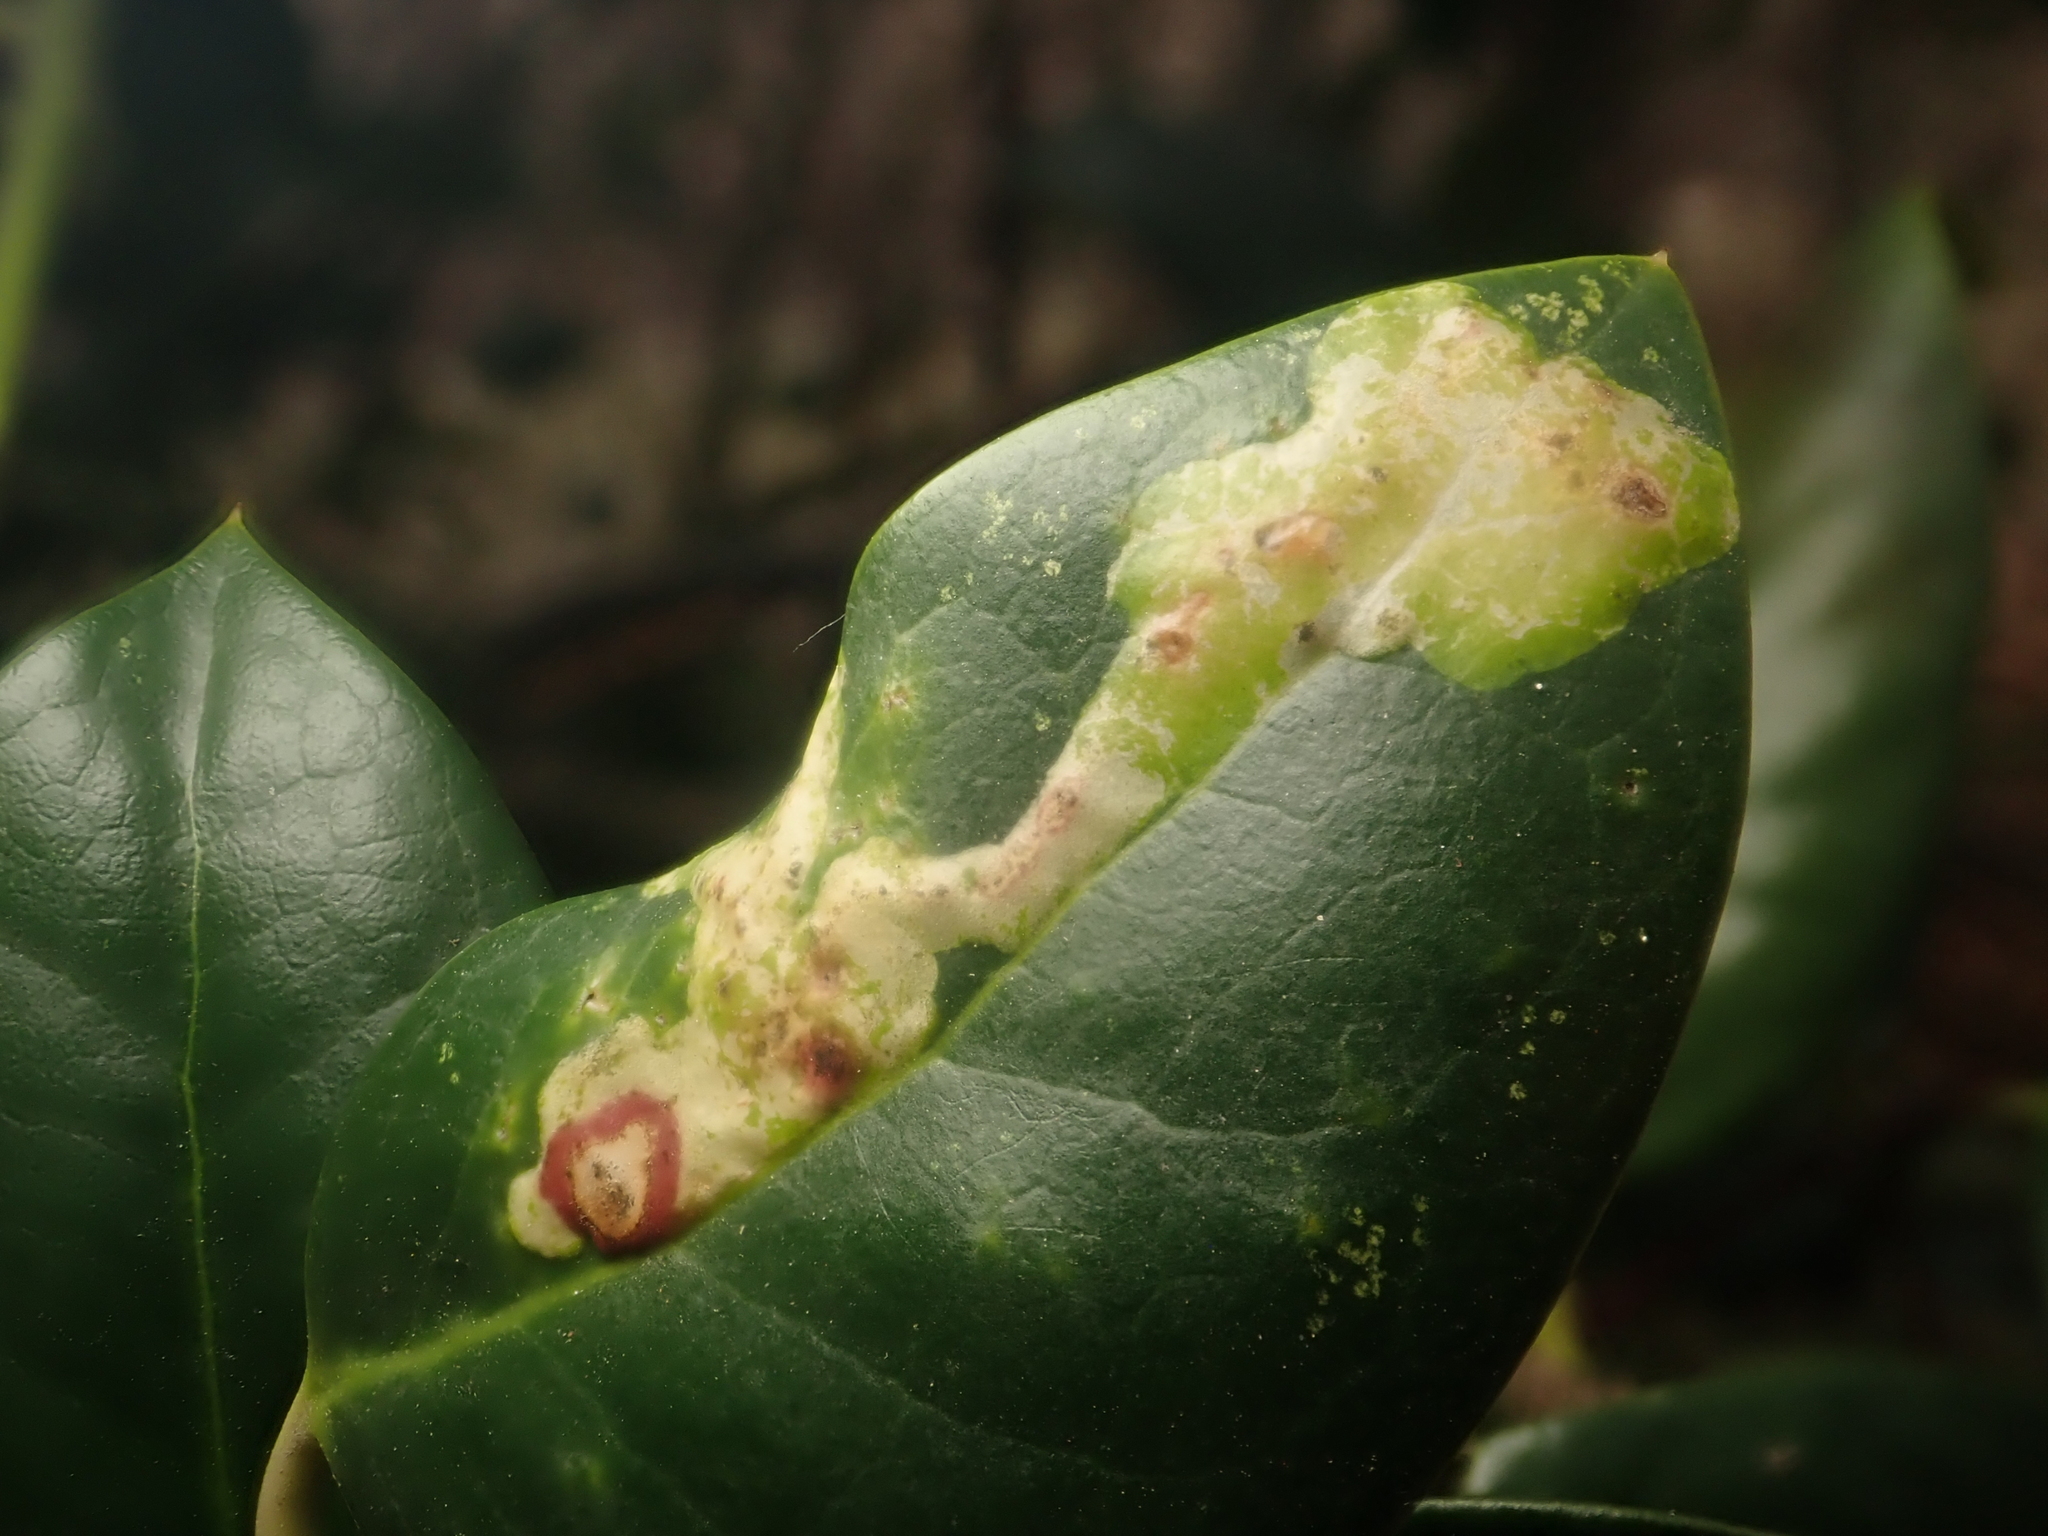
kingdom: Animalia
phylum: Arthropoda
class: Insecta
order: Diptera
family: Agromyzidae
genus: Phytomyza
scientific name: Phytomyza ilicis
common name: Holly leafminer
